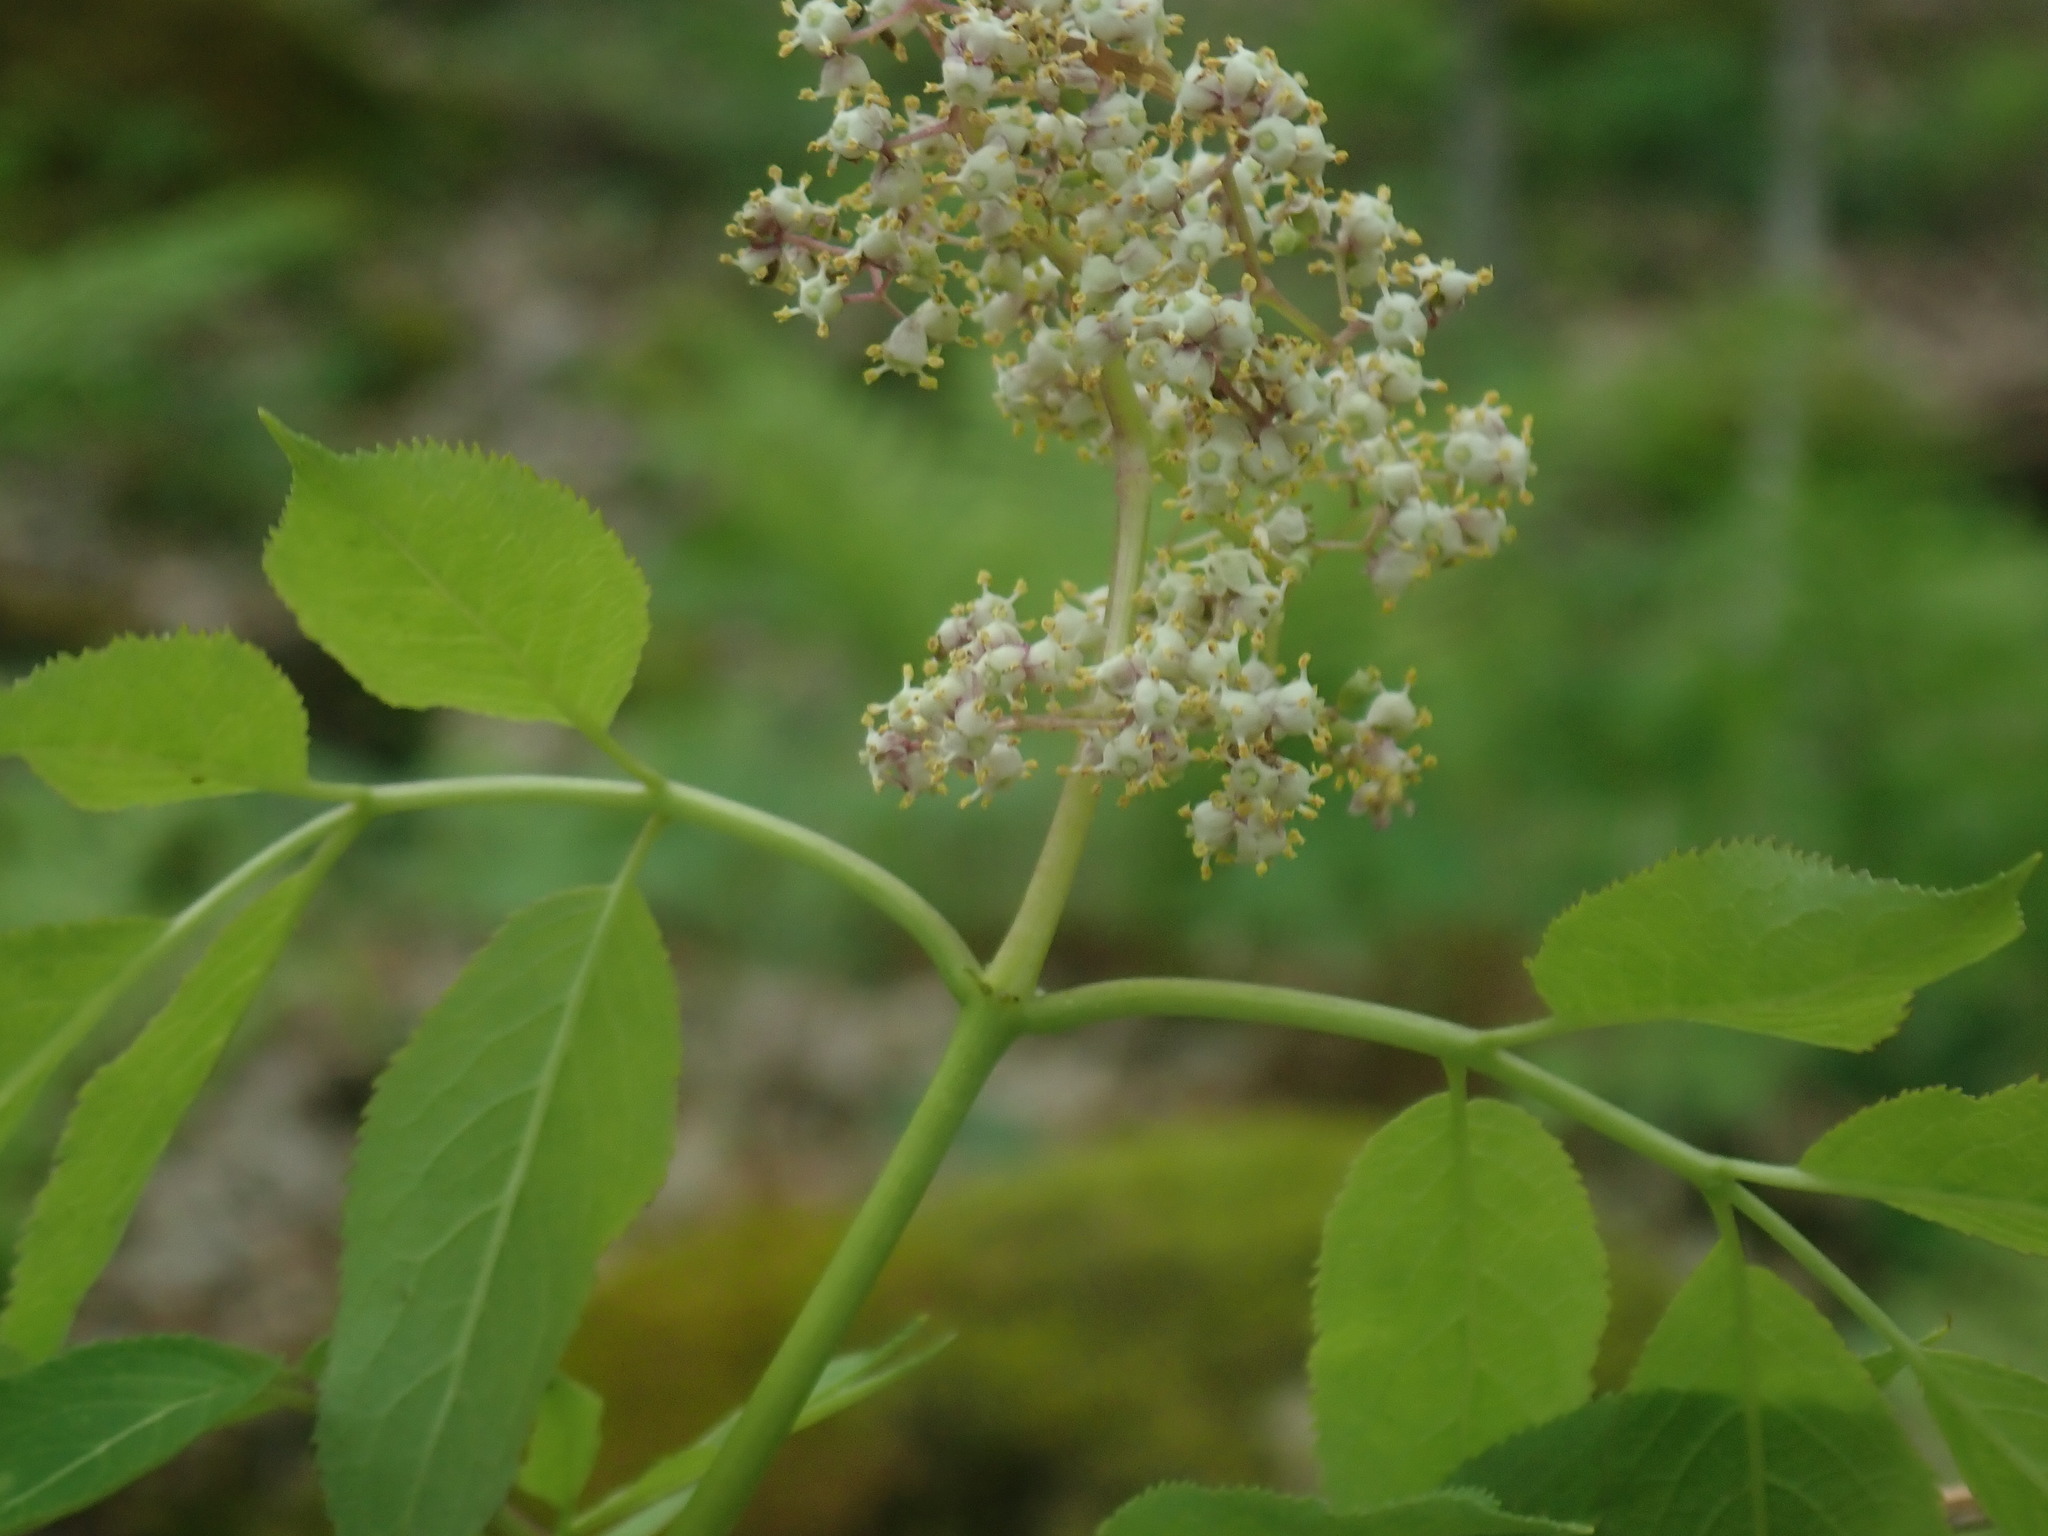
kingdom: Plantae
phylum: Tracheophyta
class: Magnoliopsida
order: Dipsacales
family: Viburnaceae
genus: Sambucus
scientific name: Sambucus racemosa
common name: Red-berried elder
